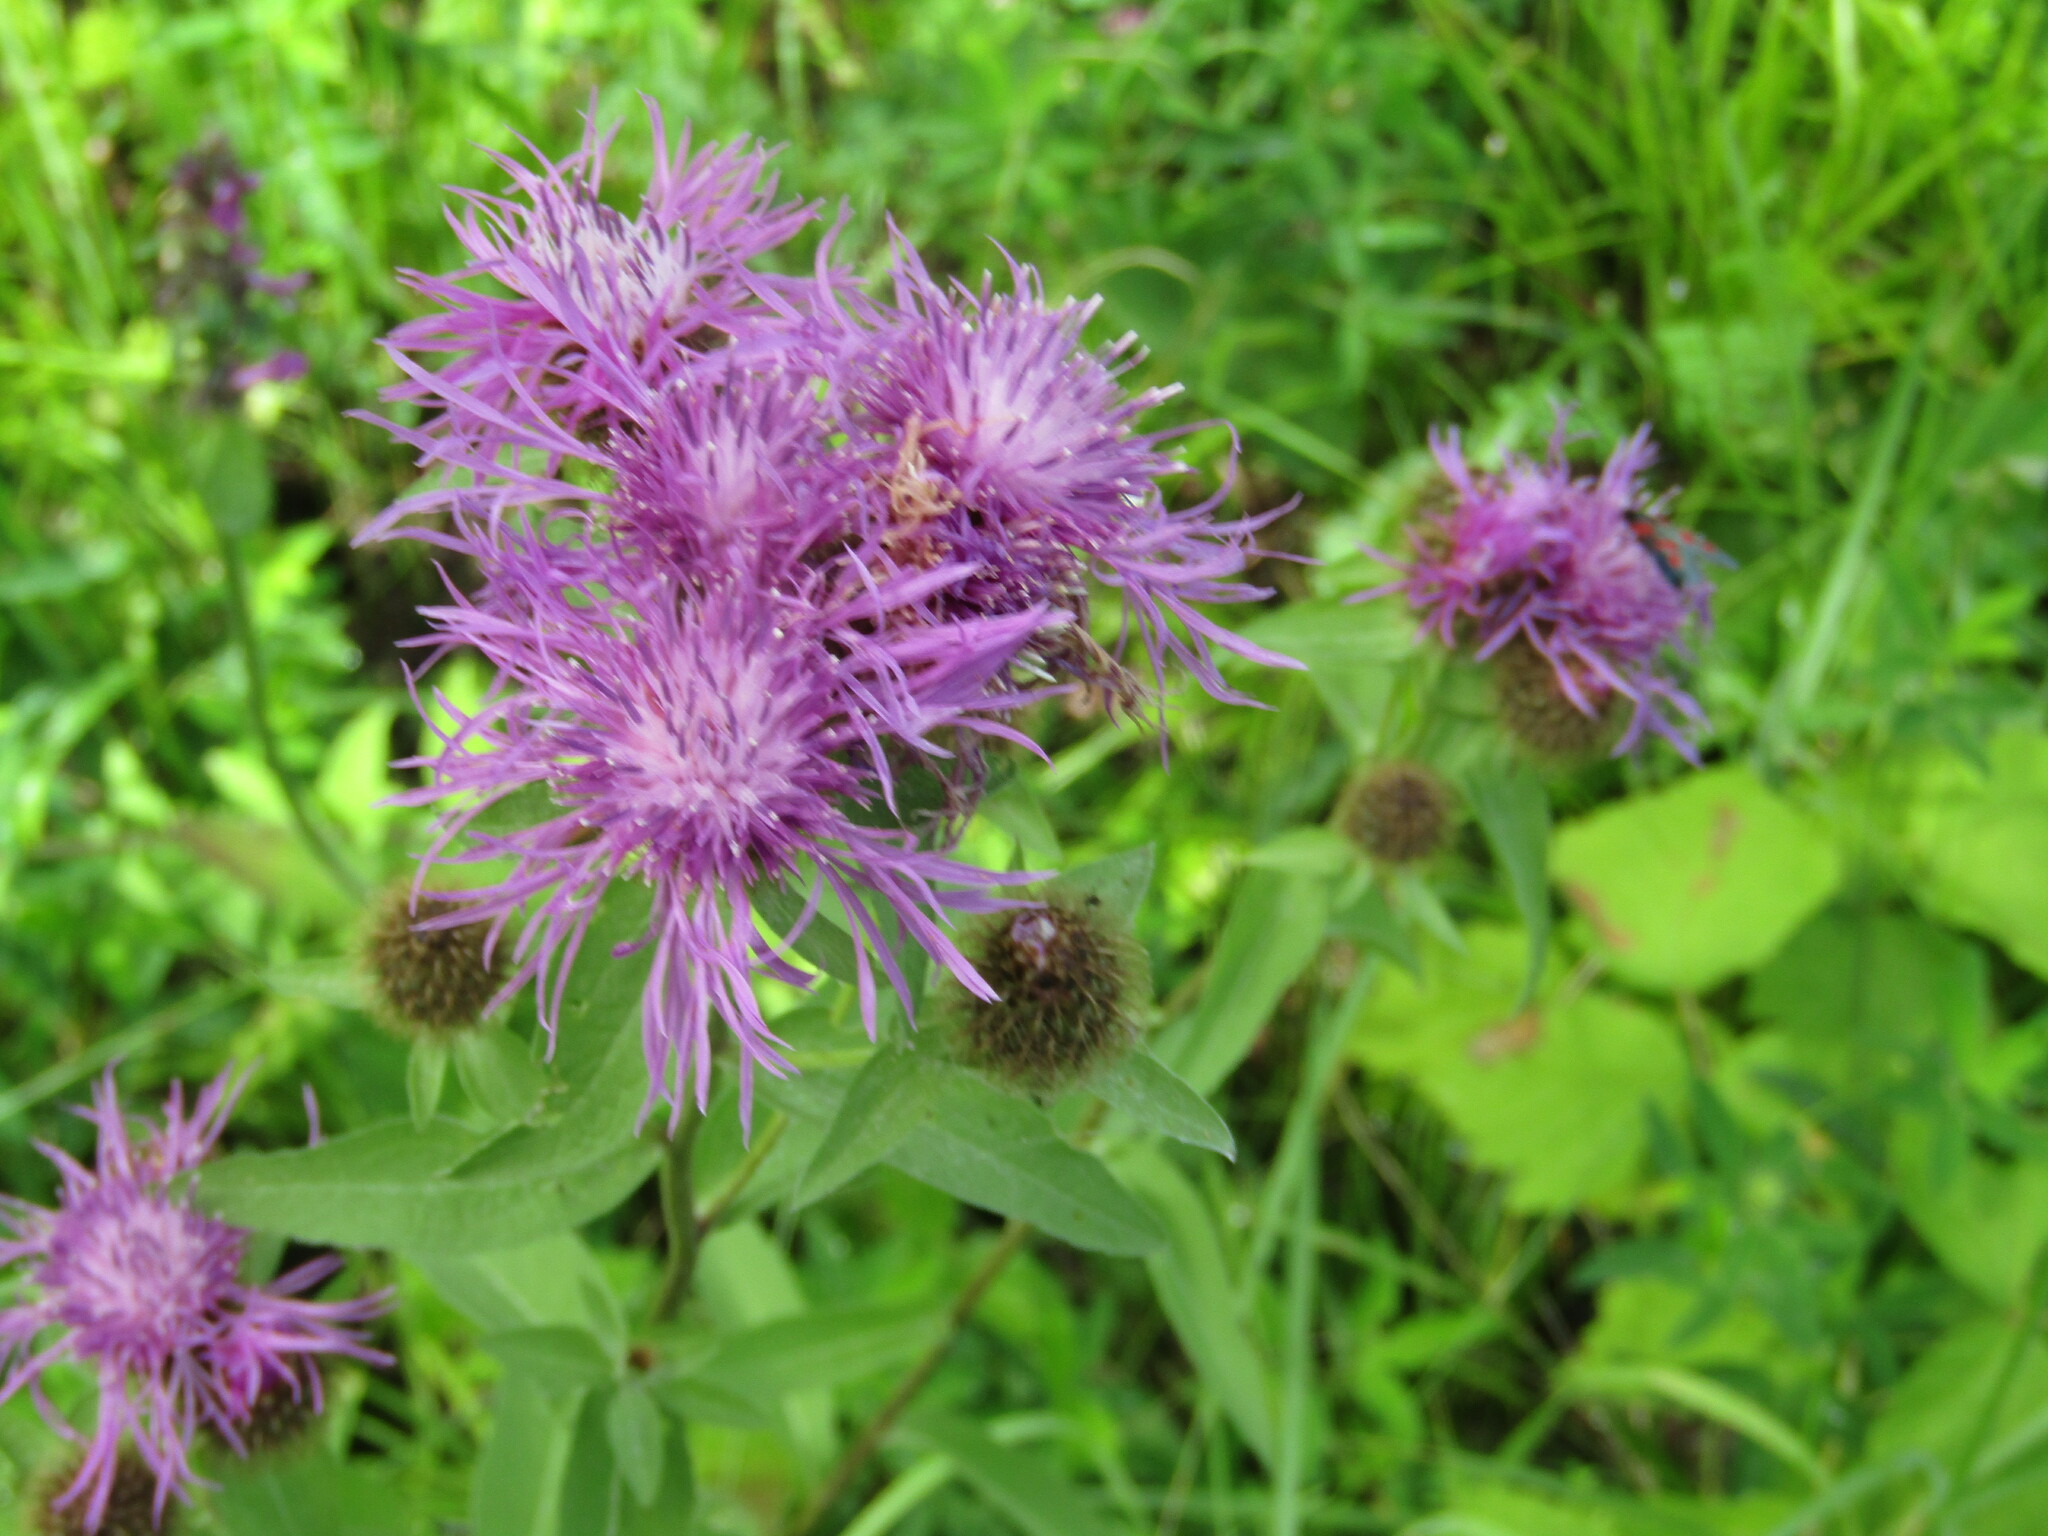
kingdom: Plantae
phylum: Tracheophyta
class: Magnoliopsida
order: Asterales
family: Asteraceae
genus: Centaurea
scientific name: Centaurea phrygia
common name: Wig knapweed
